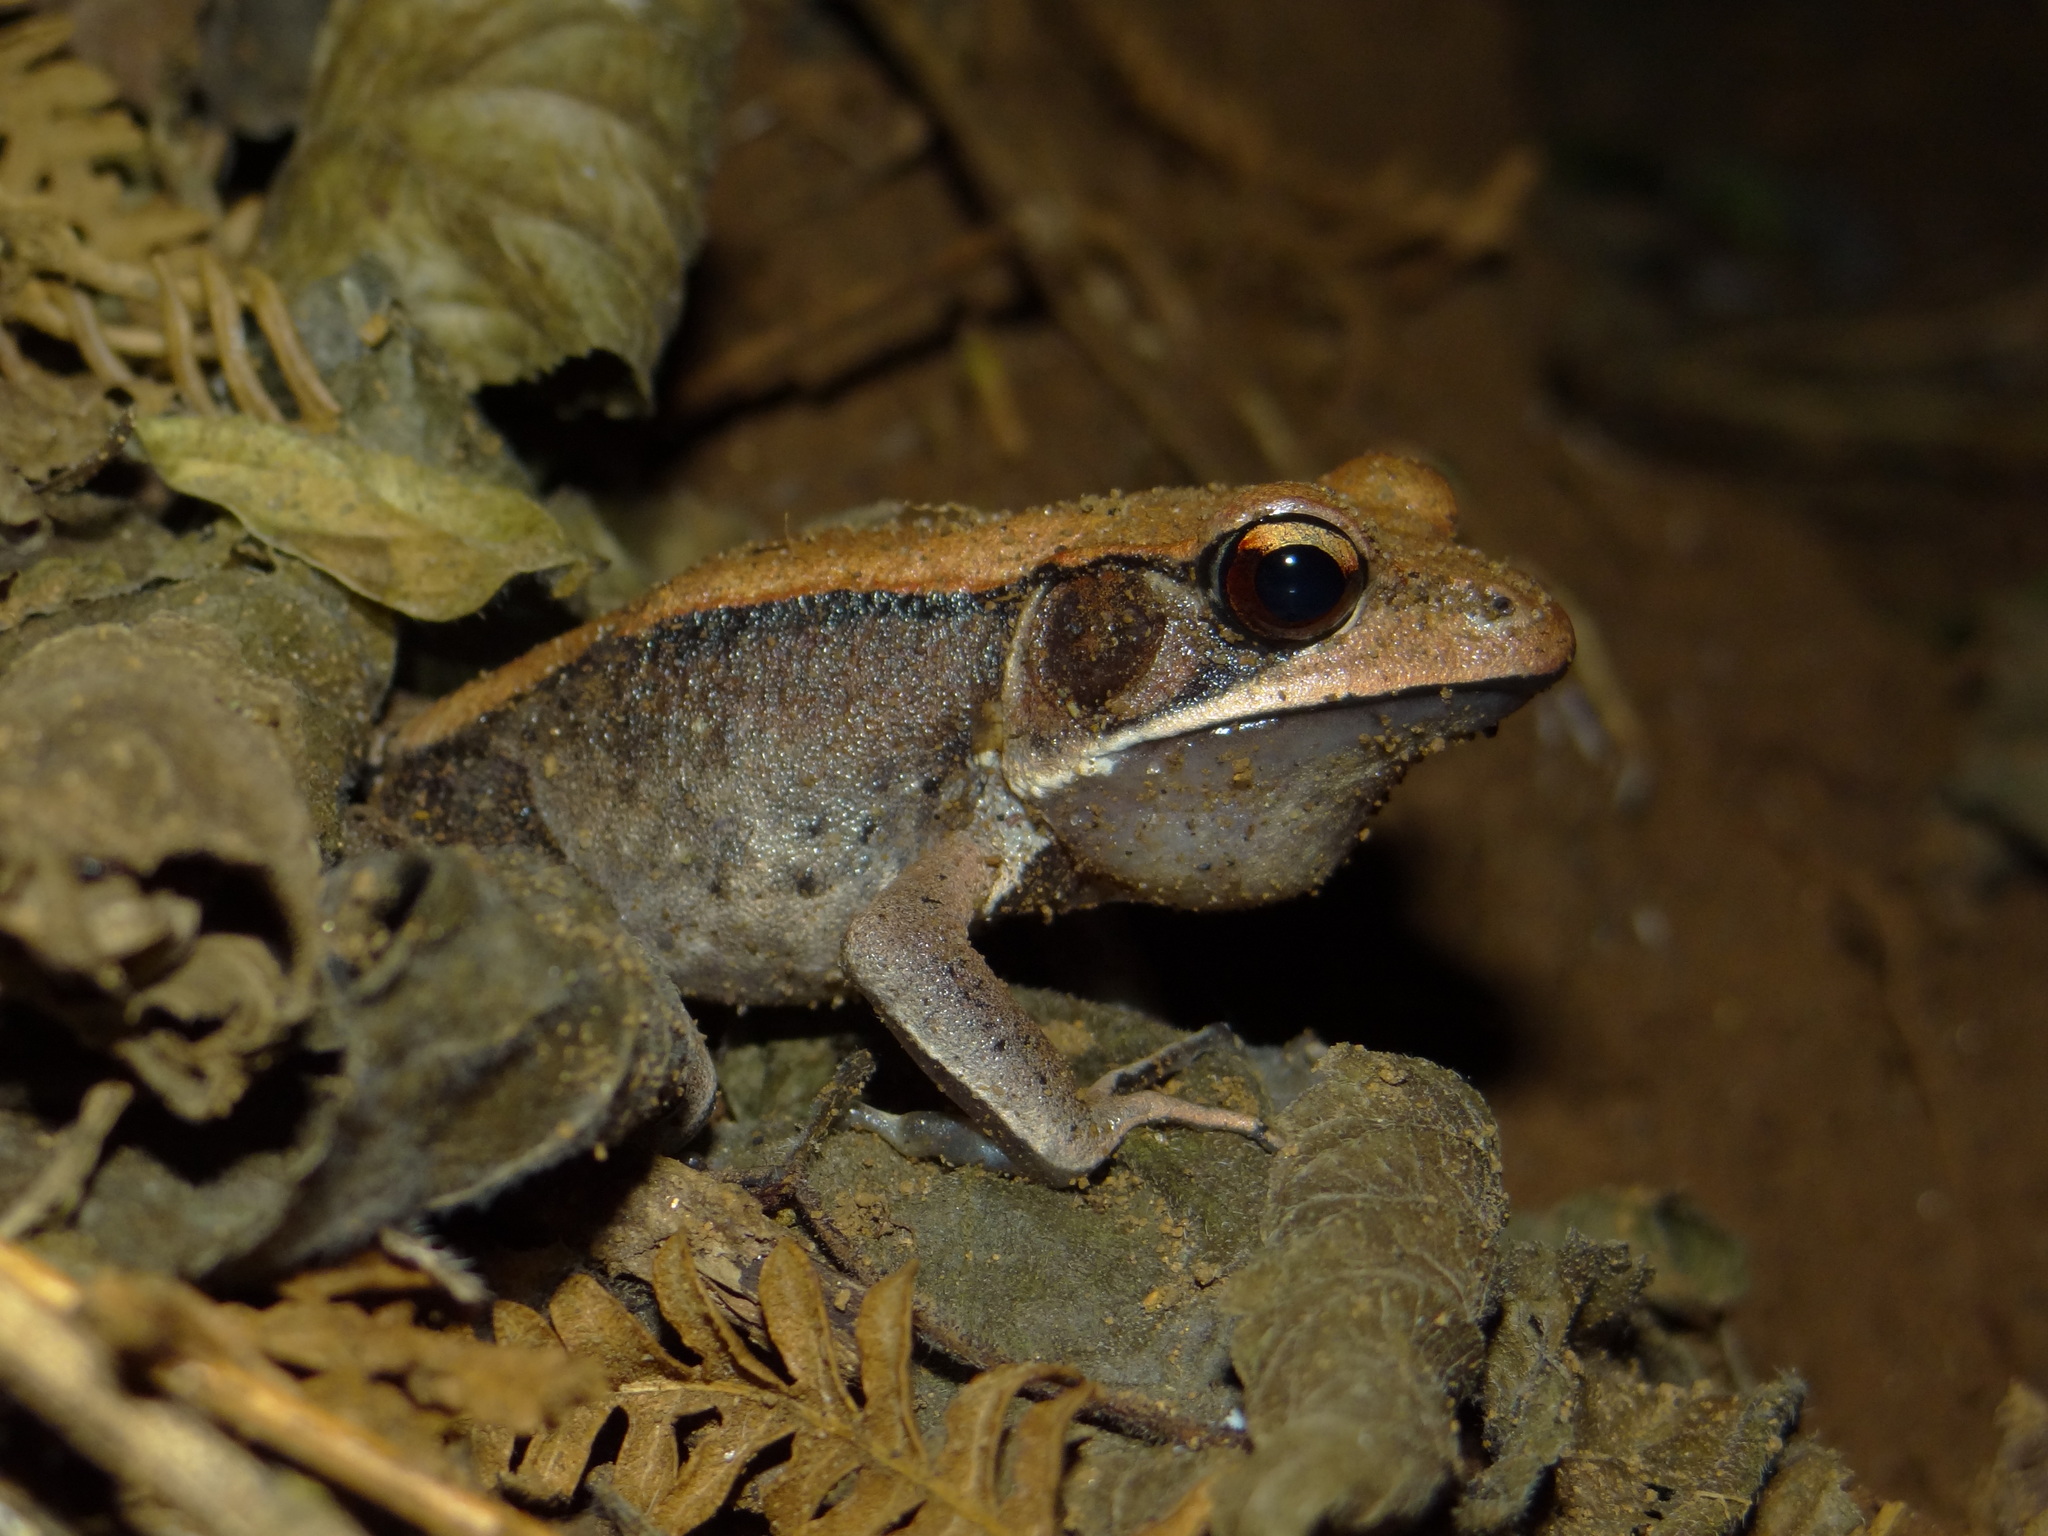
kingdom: Animalia
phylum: Chordata
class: Amphibia
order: Anura
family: Ranidae
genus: Clinotarsus
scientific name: Clinotarsus curtipes
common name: Bicoloured frog
